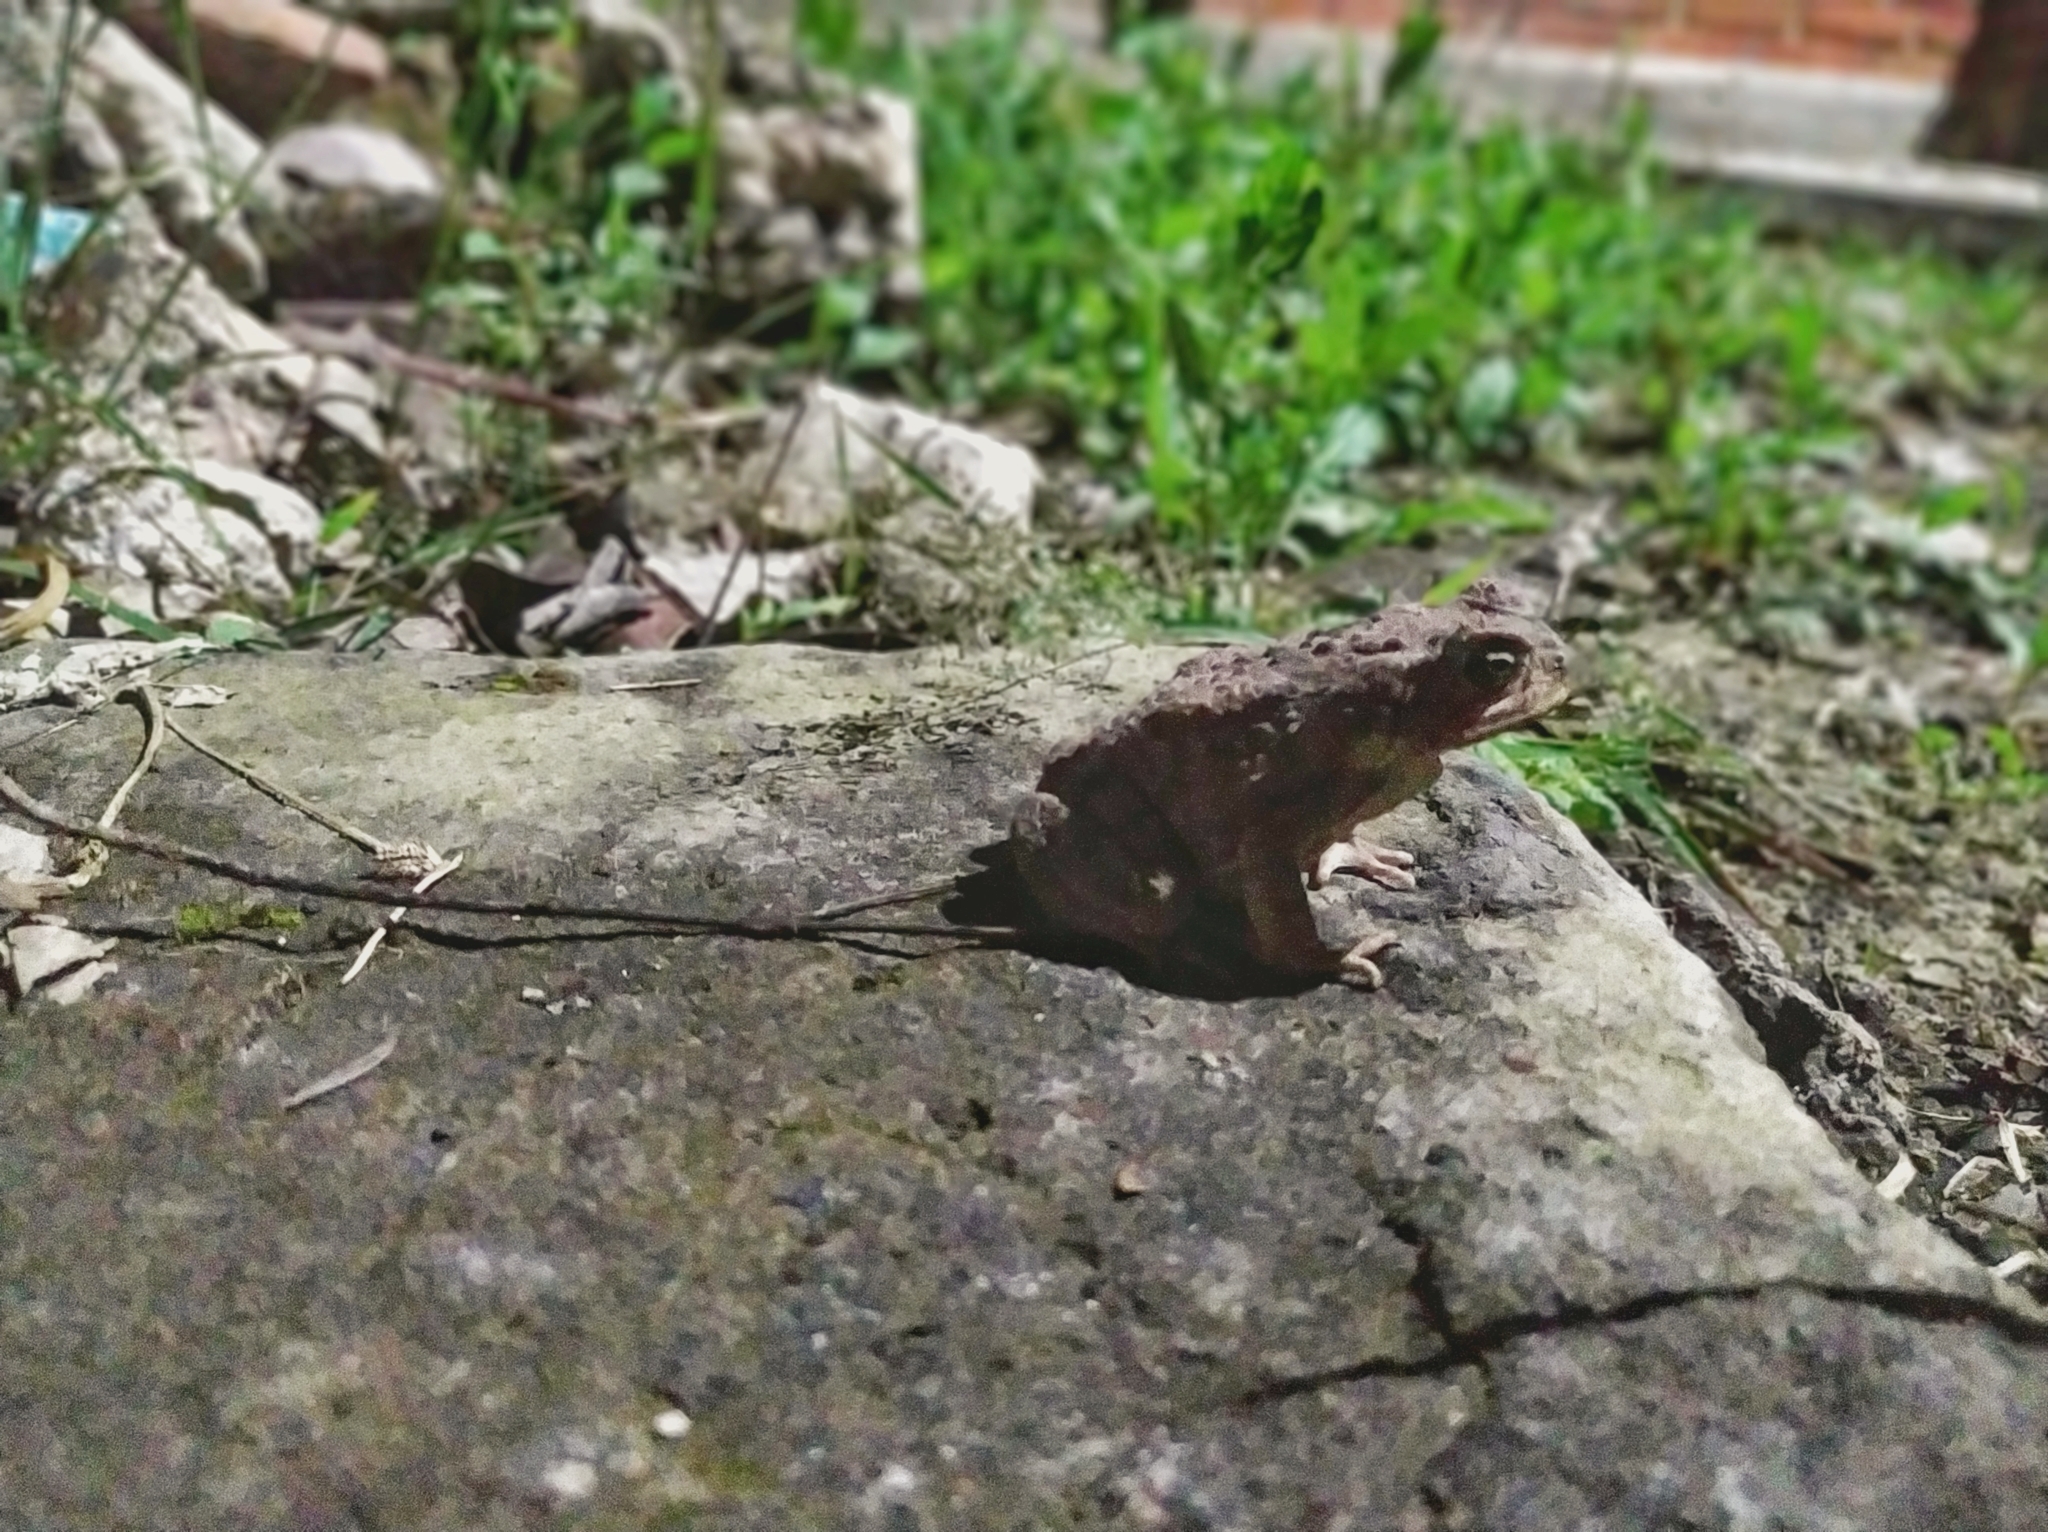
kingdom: Animalia
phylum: Chordata
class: Amphibia
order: Anura
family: Bufonidae
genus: Rhinella
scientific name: Rhinella horribilis
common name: Mesoamerican cane toad
